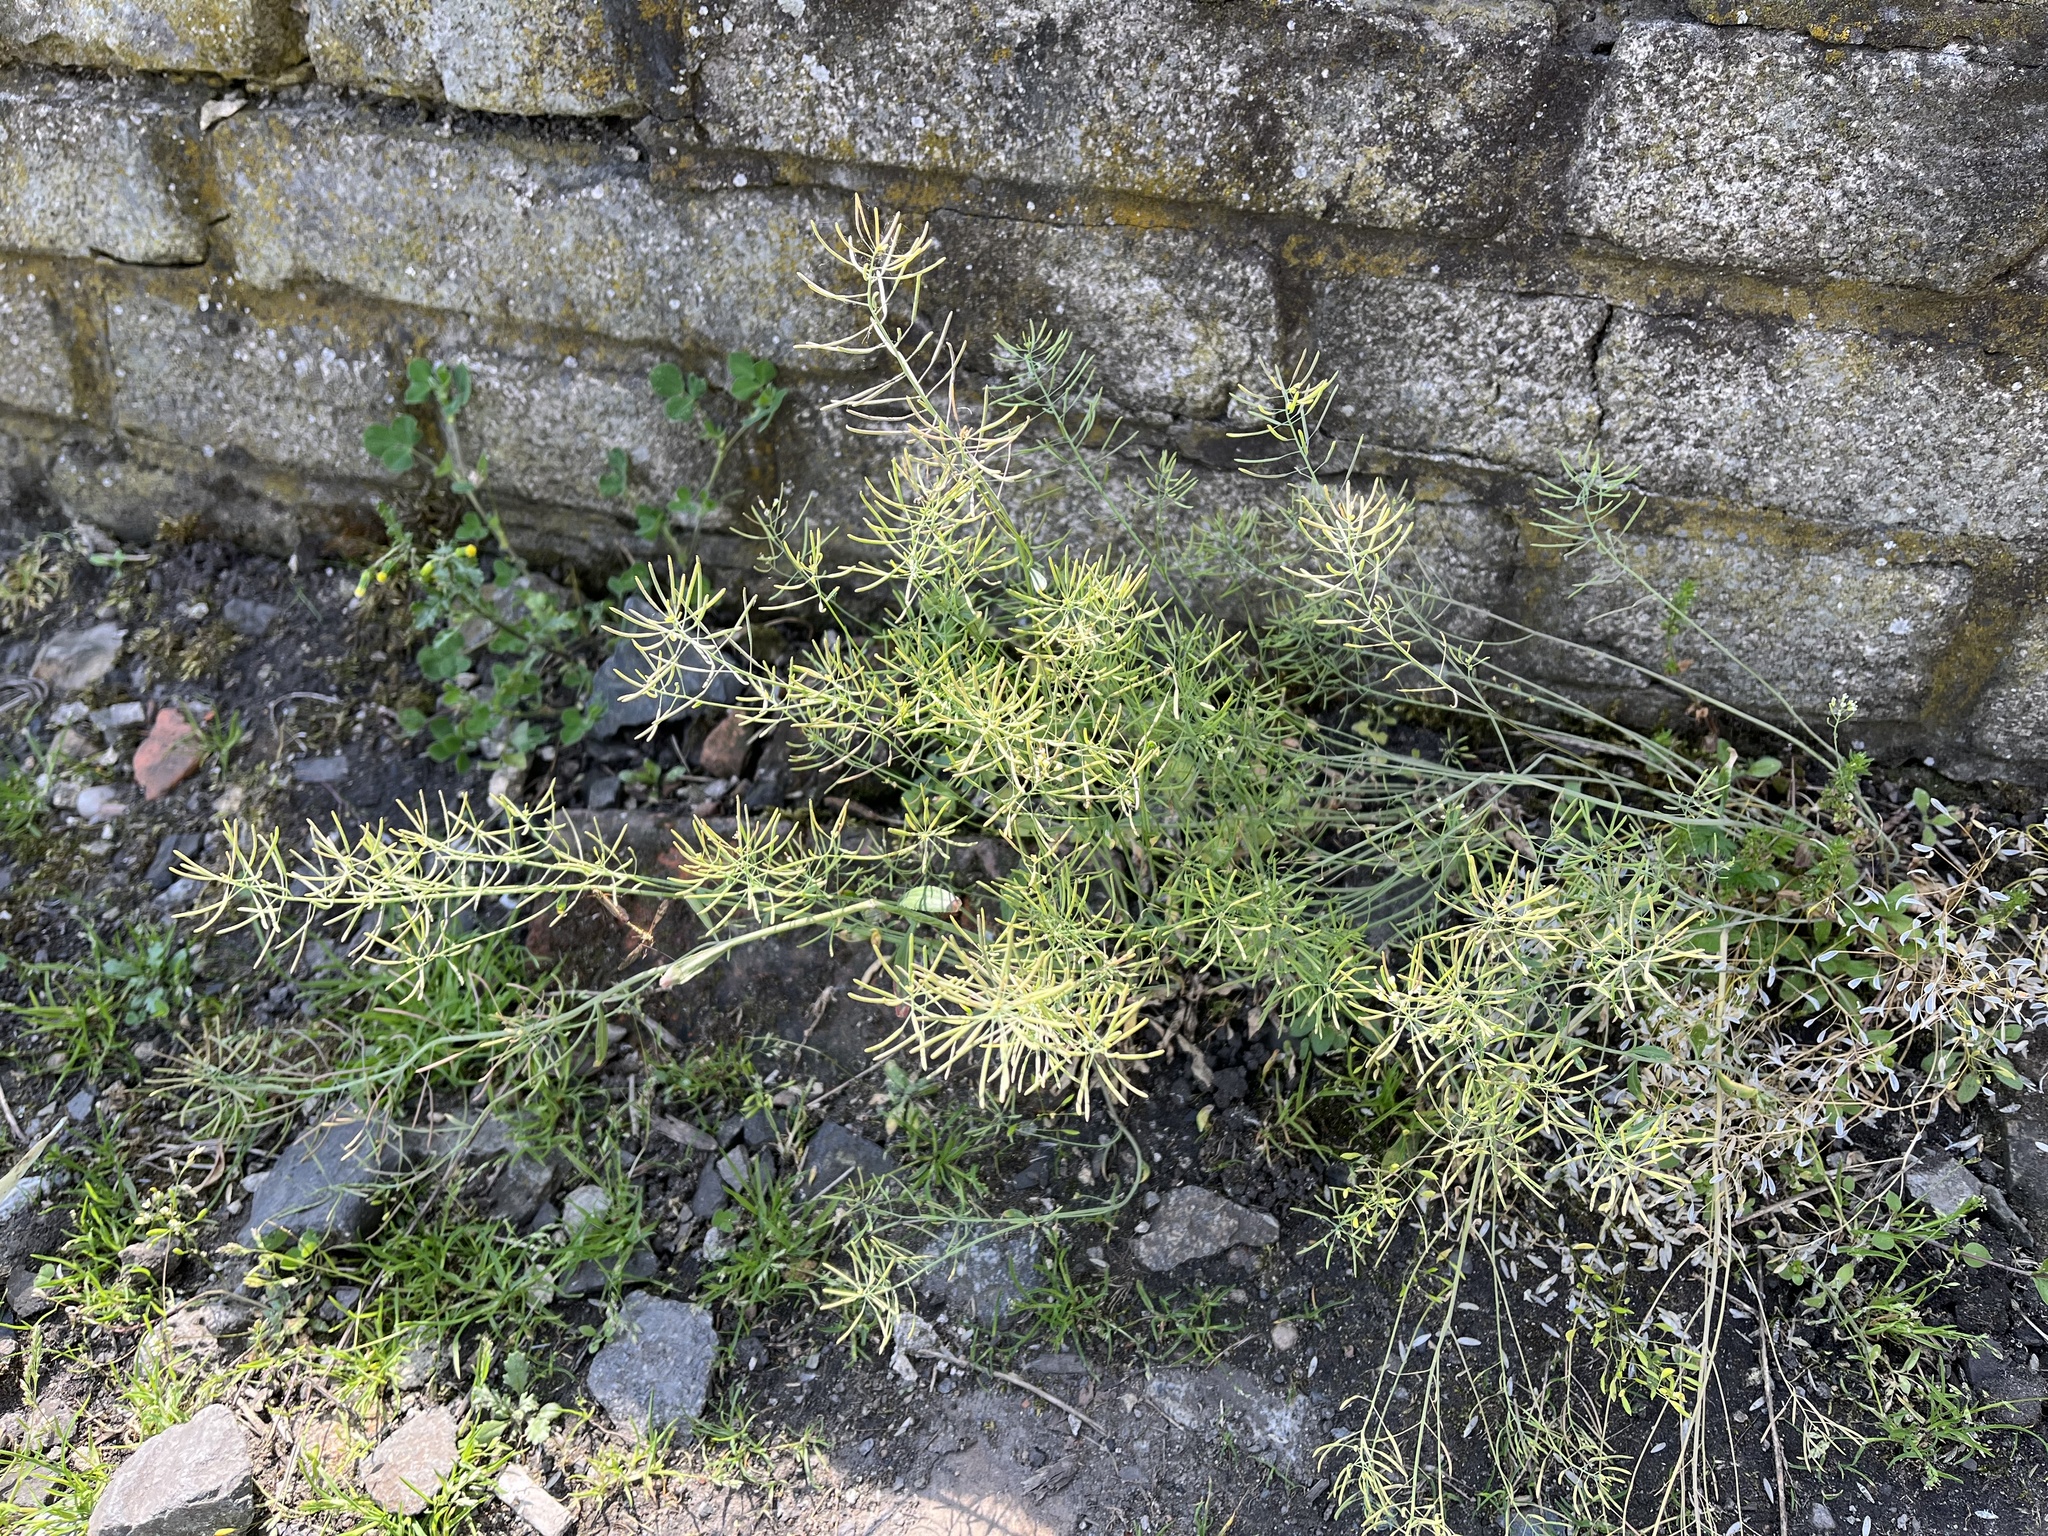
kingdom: Plantae
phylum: Tracheophyta
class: Magnoliopsida
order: Brassicales
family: Brassicaceae
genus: Arabidopsis
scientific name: Arabidopsis thaliana
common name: Thale cress
